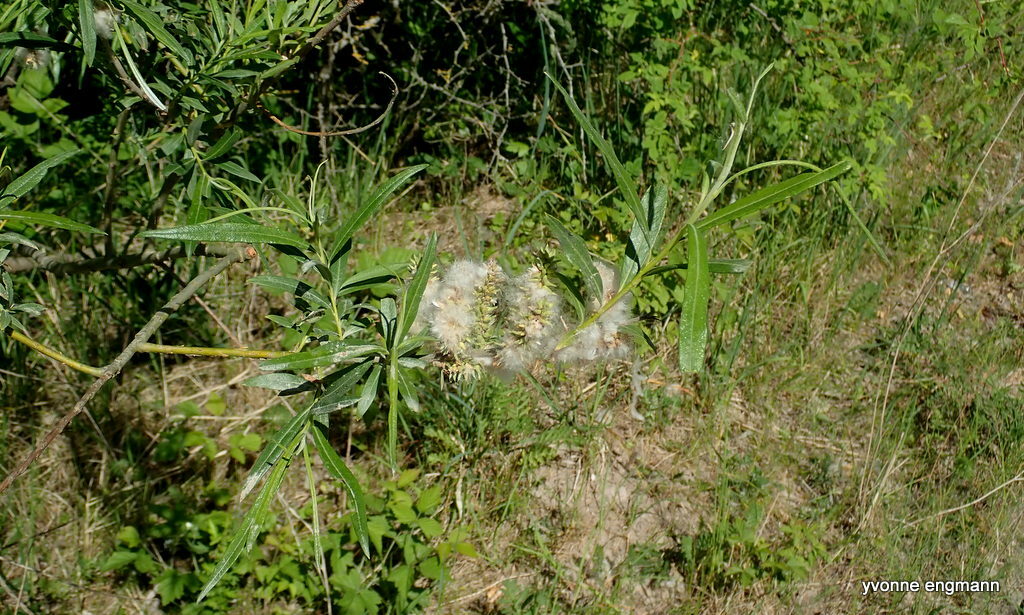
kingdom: Plantae
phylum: Tracheophyta
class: Magnoliopsida
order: Malpighiales
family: Salicaceae
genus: Salix
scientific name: Salix viminalis
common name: Osier
